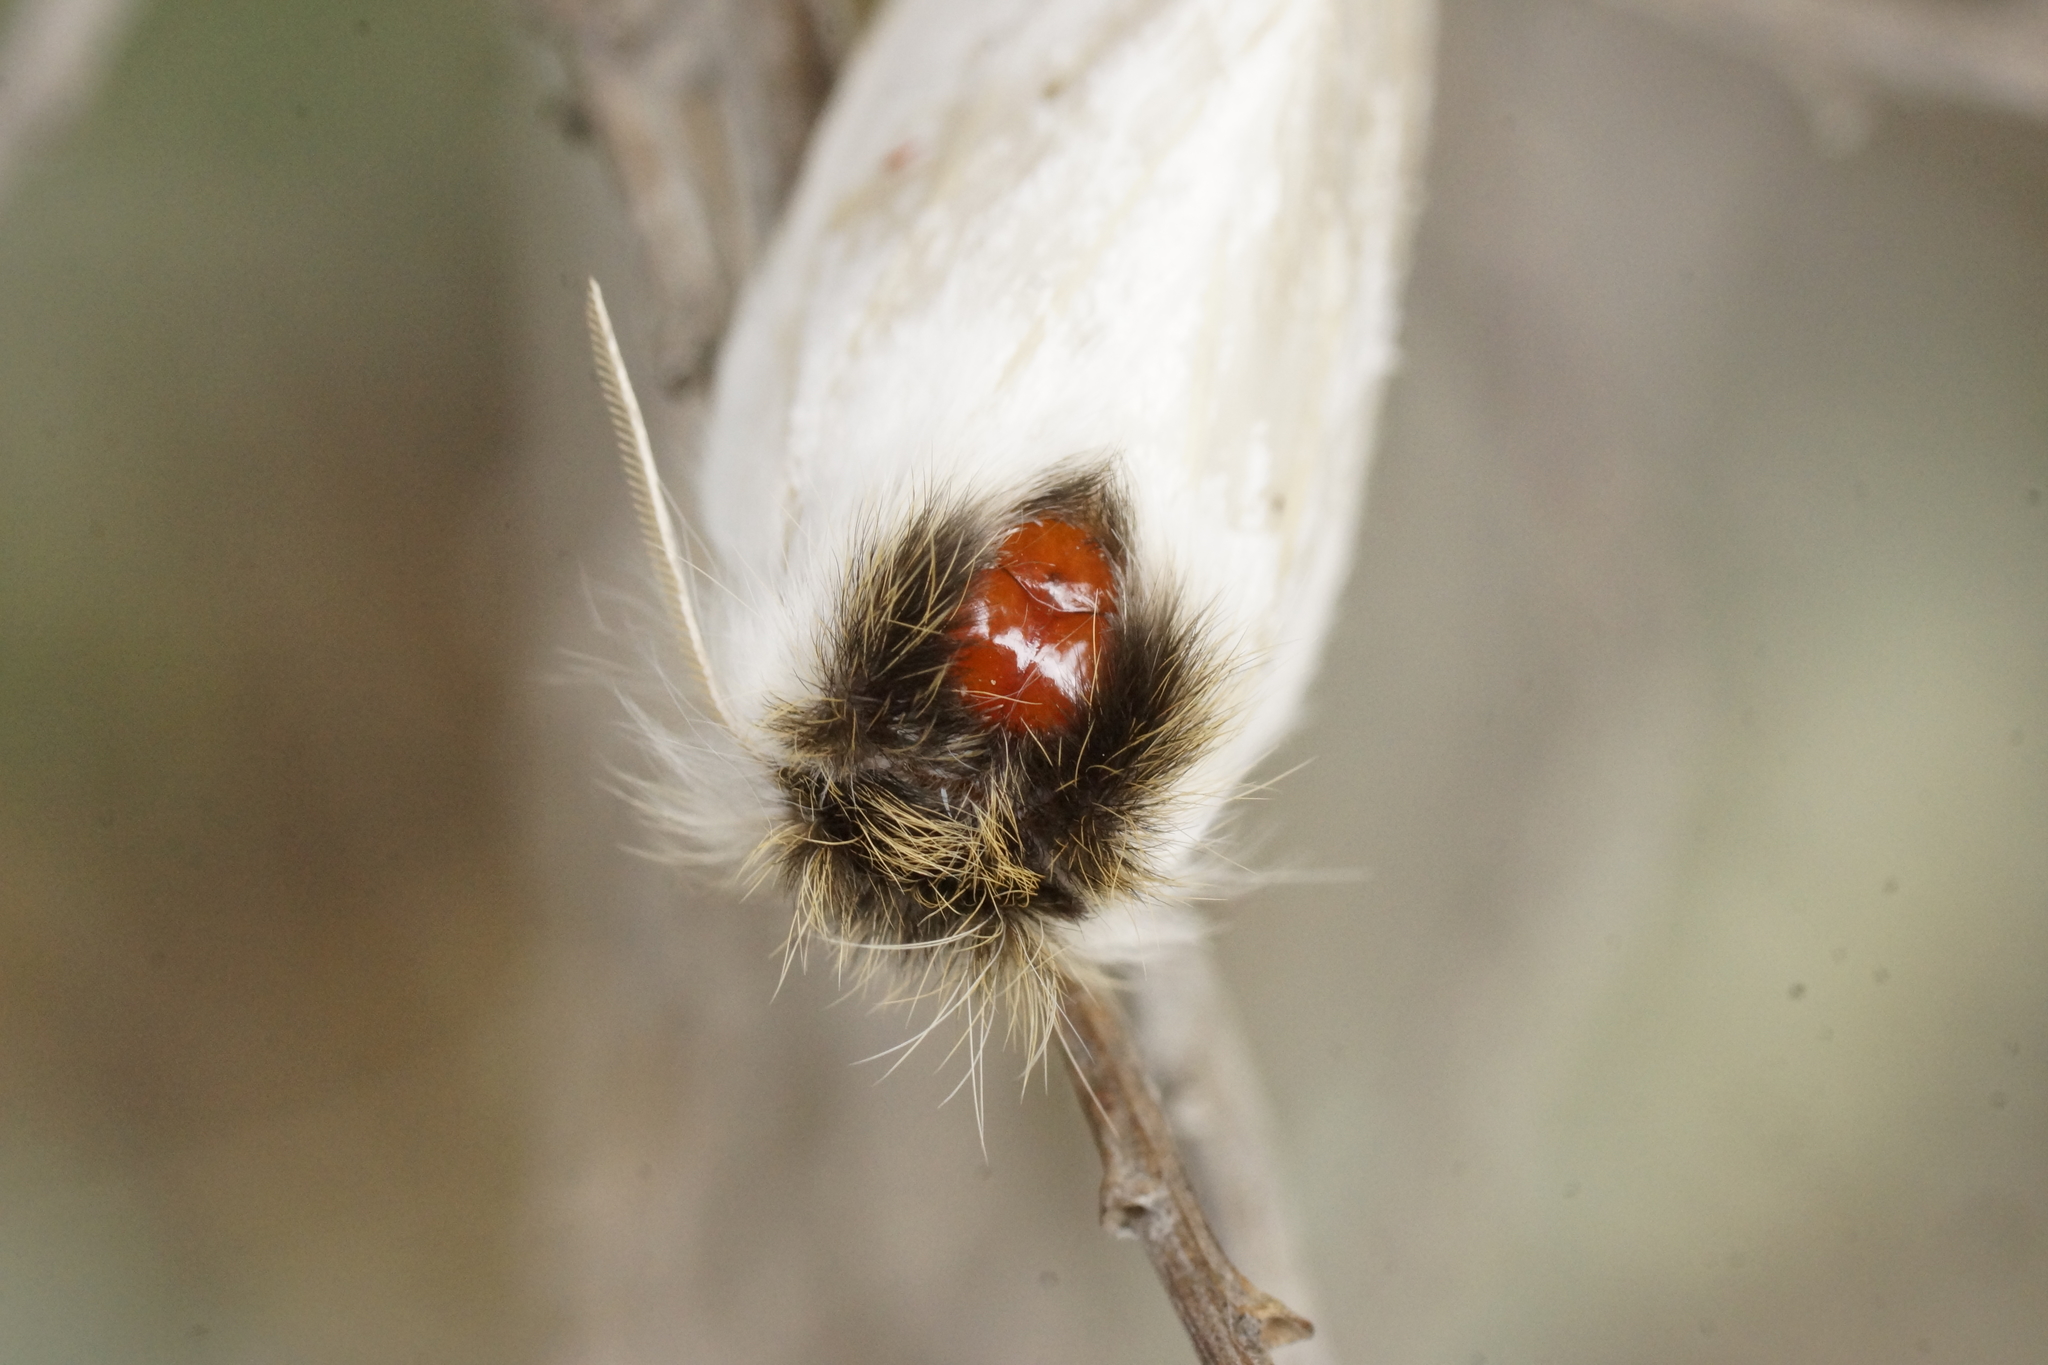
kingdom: Animalia
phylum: Arthropoda
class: Insecta
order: Lepidoptera
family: Notodontidae
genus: Trichiocercus
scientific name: Trichiocercus sparshalli
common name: Long-tailed satin
